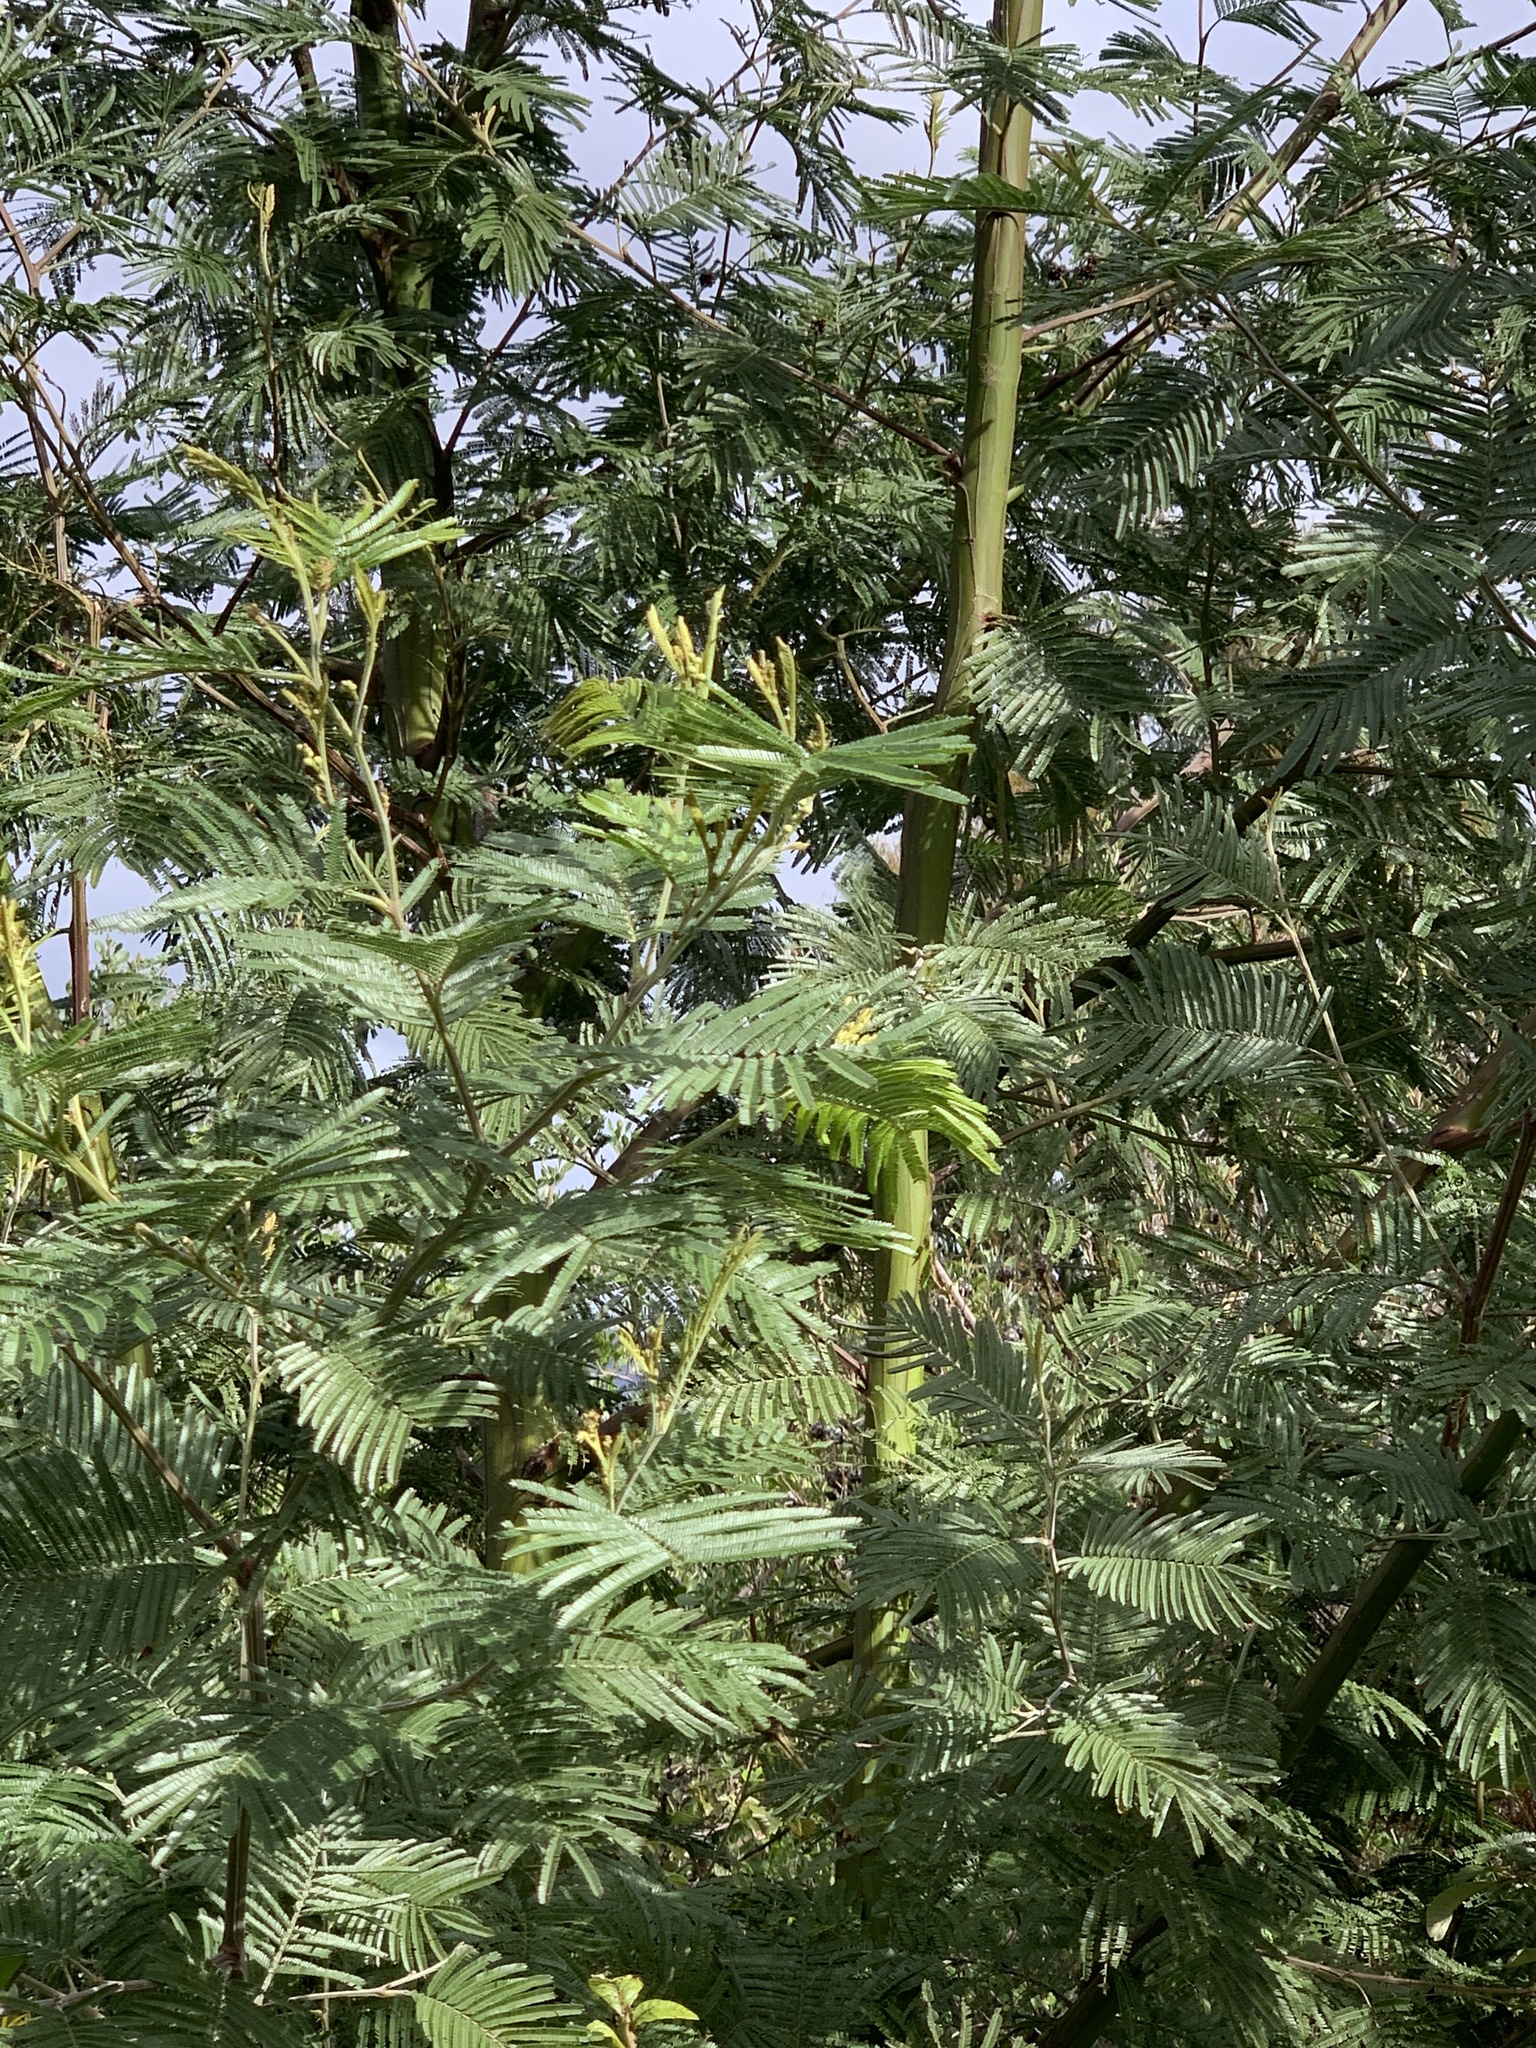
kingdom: Plantae
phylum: Tracheophyta
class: Magnoliopsida
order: Fabales
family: Fabaceae
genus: Acacia
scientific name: Acacia mearnsii
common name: Black wattle
